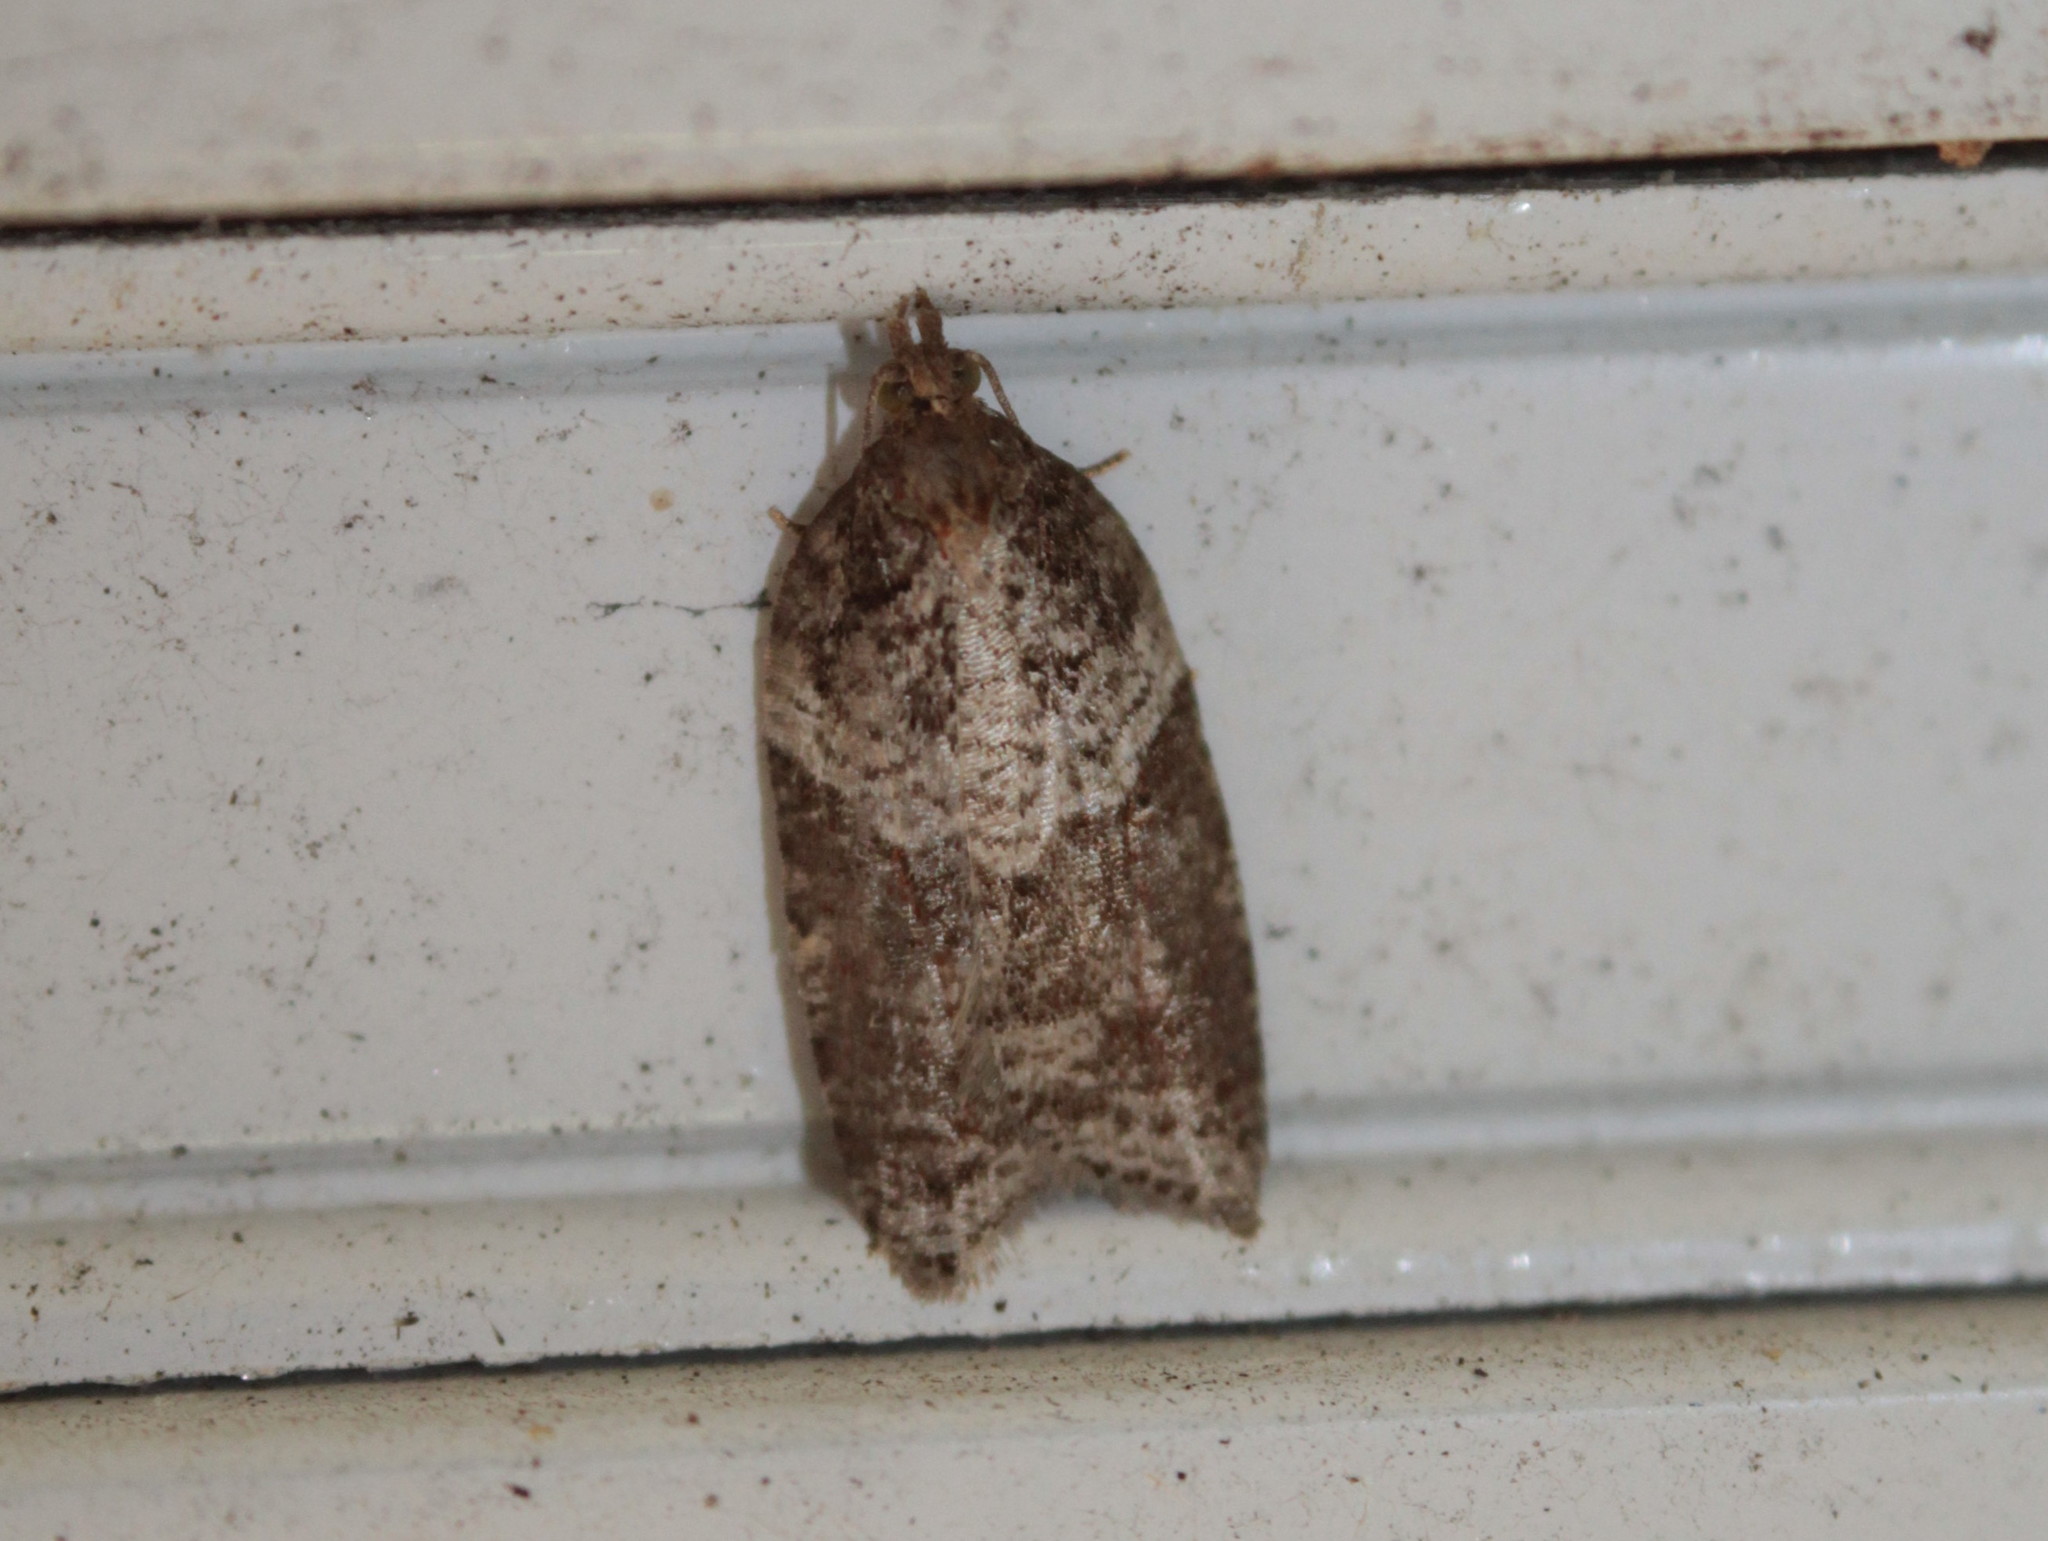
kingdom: Animalia
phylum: Arthropoda
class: Insecta
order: Lepidoptera
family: Tortricidae
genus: Acleris
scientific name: Acleris macdunnoughi
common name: Macdunnough's acleris
